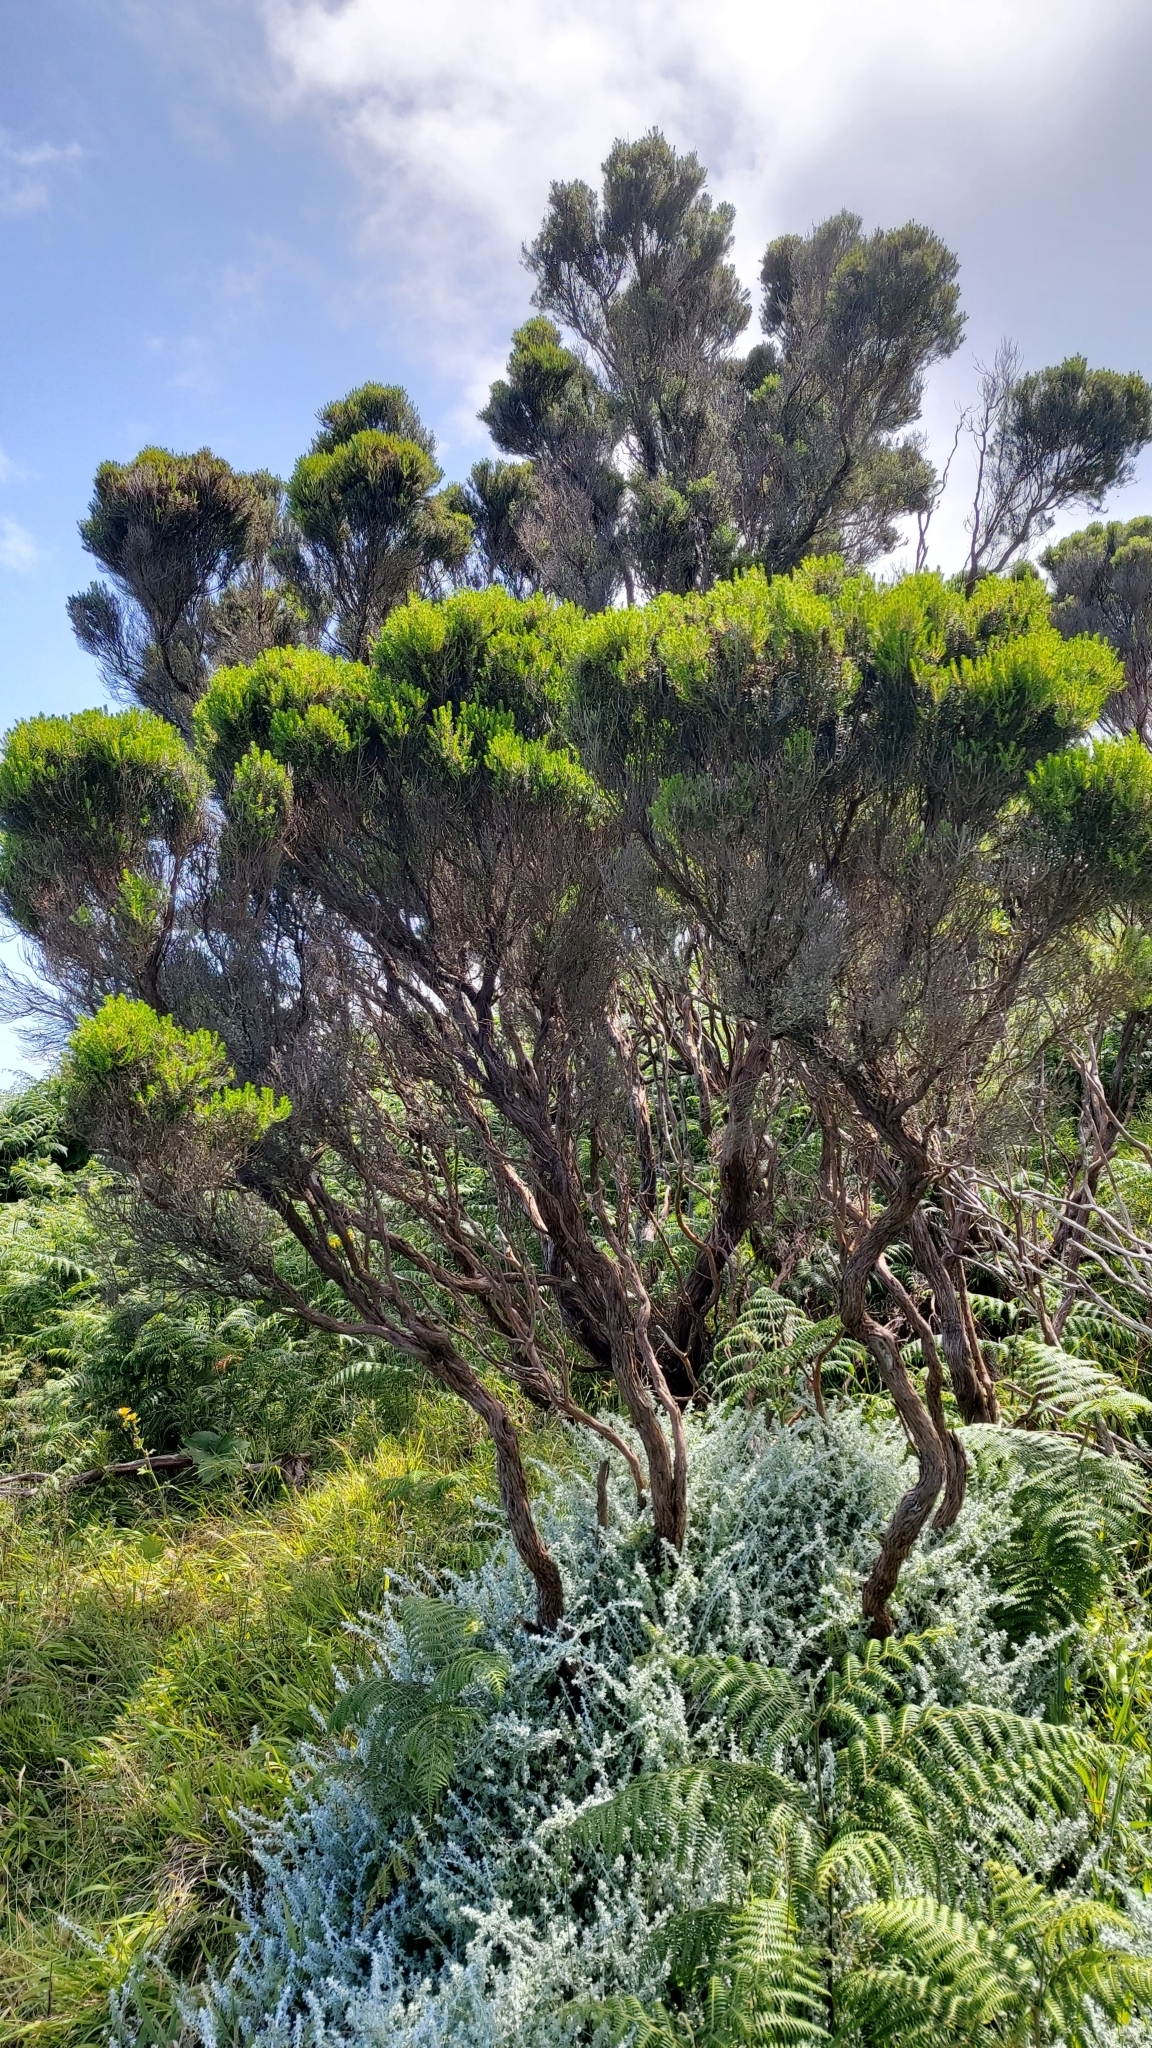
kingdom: Plantae
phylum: Tracheophyta
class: Magnoliopsida
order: Ericales
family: Ericaceae
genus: Erica
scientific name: Erica azorica
